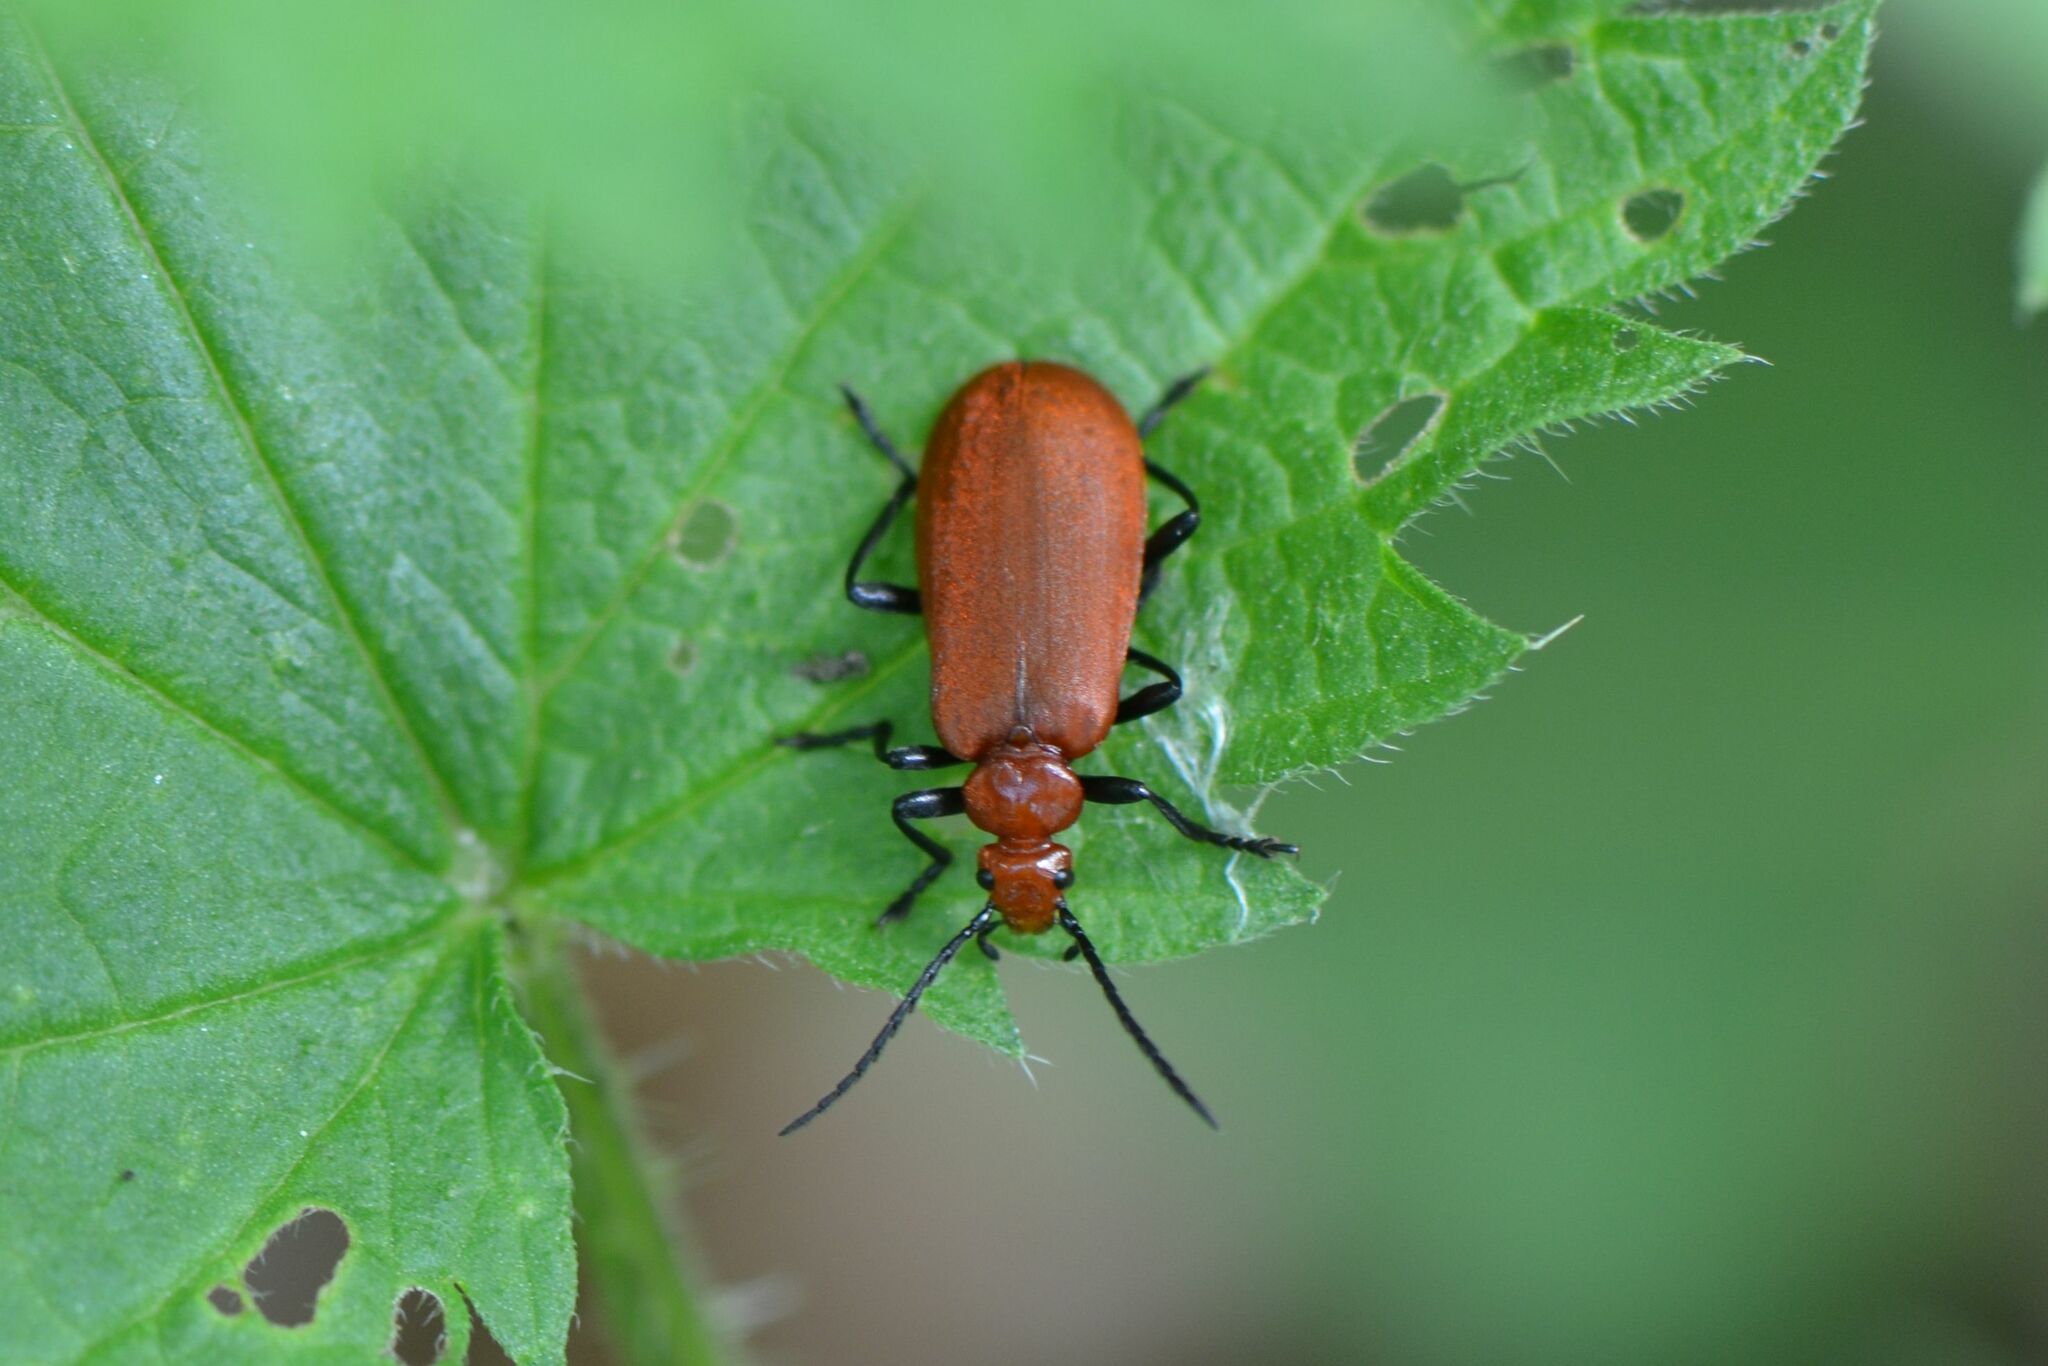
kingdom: Animalia
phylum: Arthropoda
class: Insecta
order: Coleoptera
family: Pyrochroidae
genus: Pyrochroa
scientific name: Pyrochroa serraticornis
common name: Red-headed cardinal beetle
